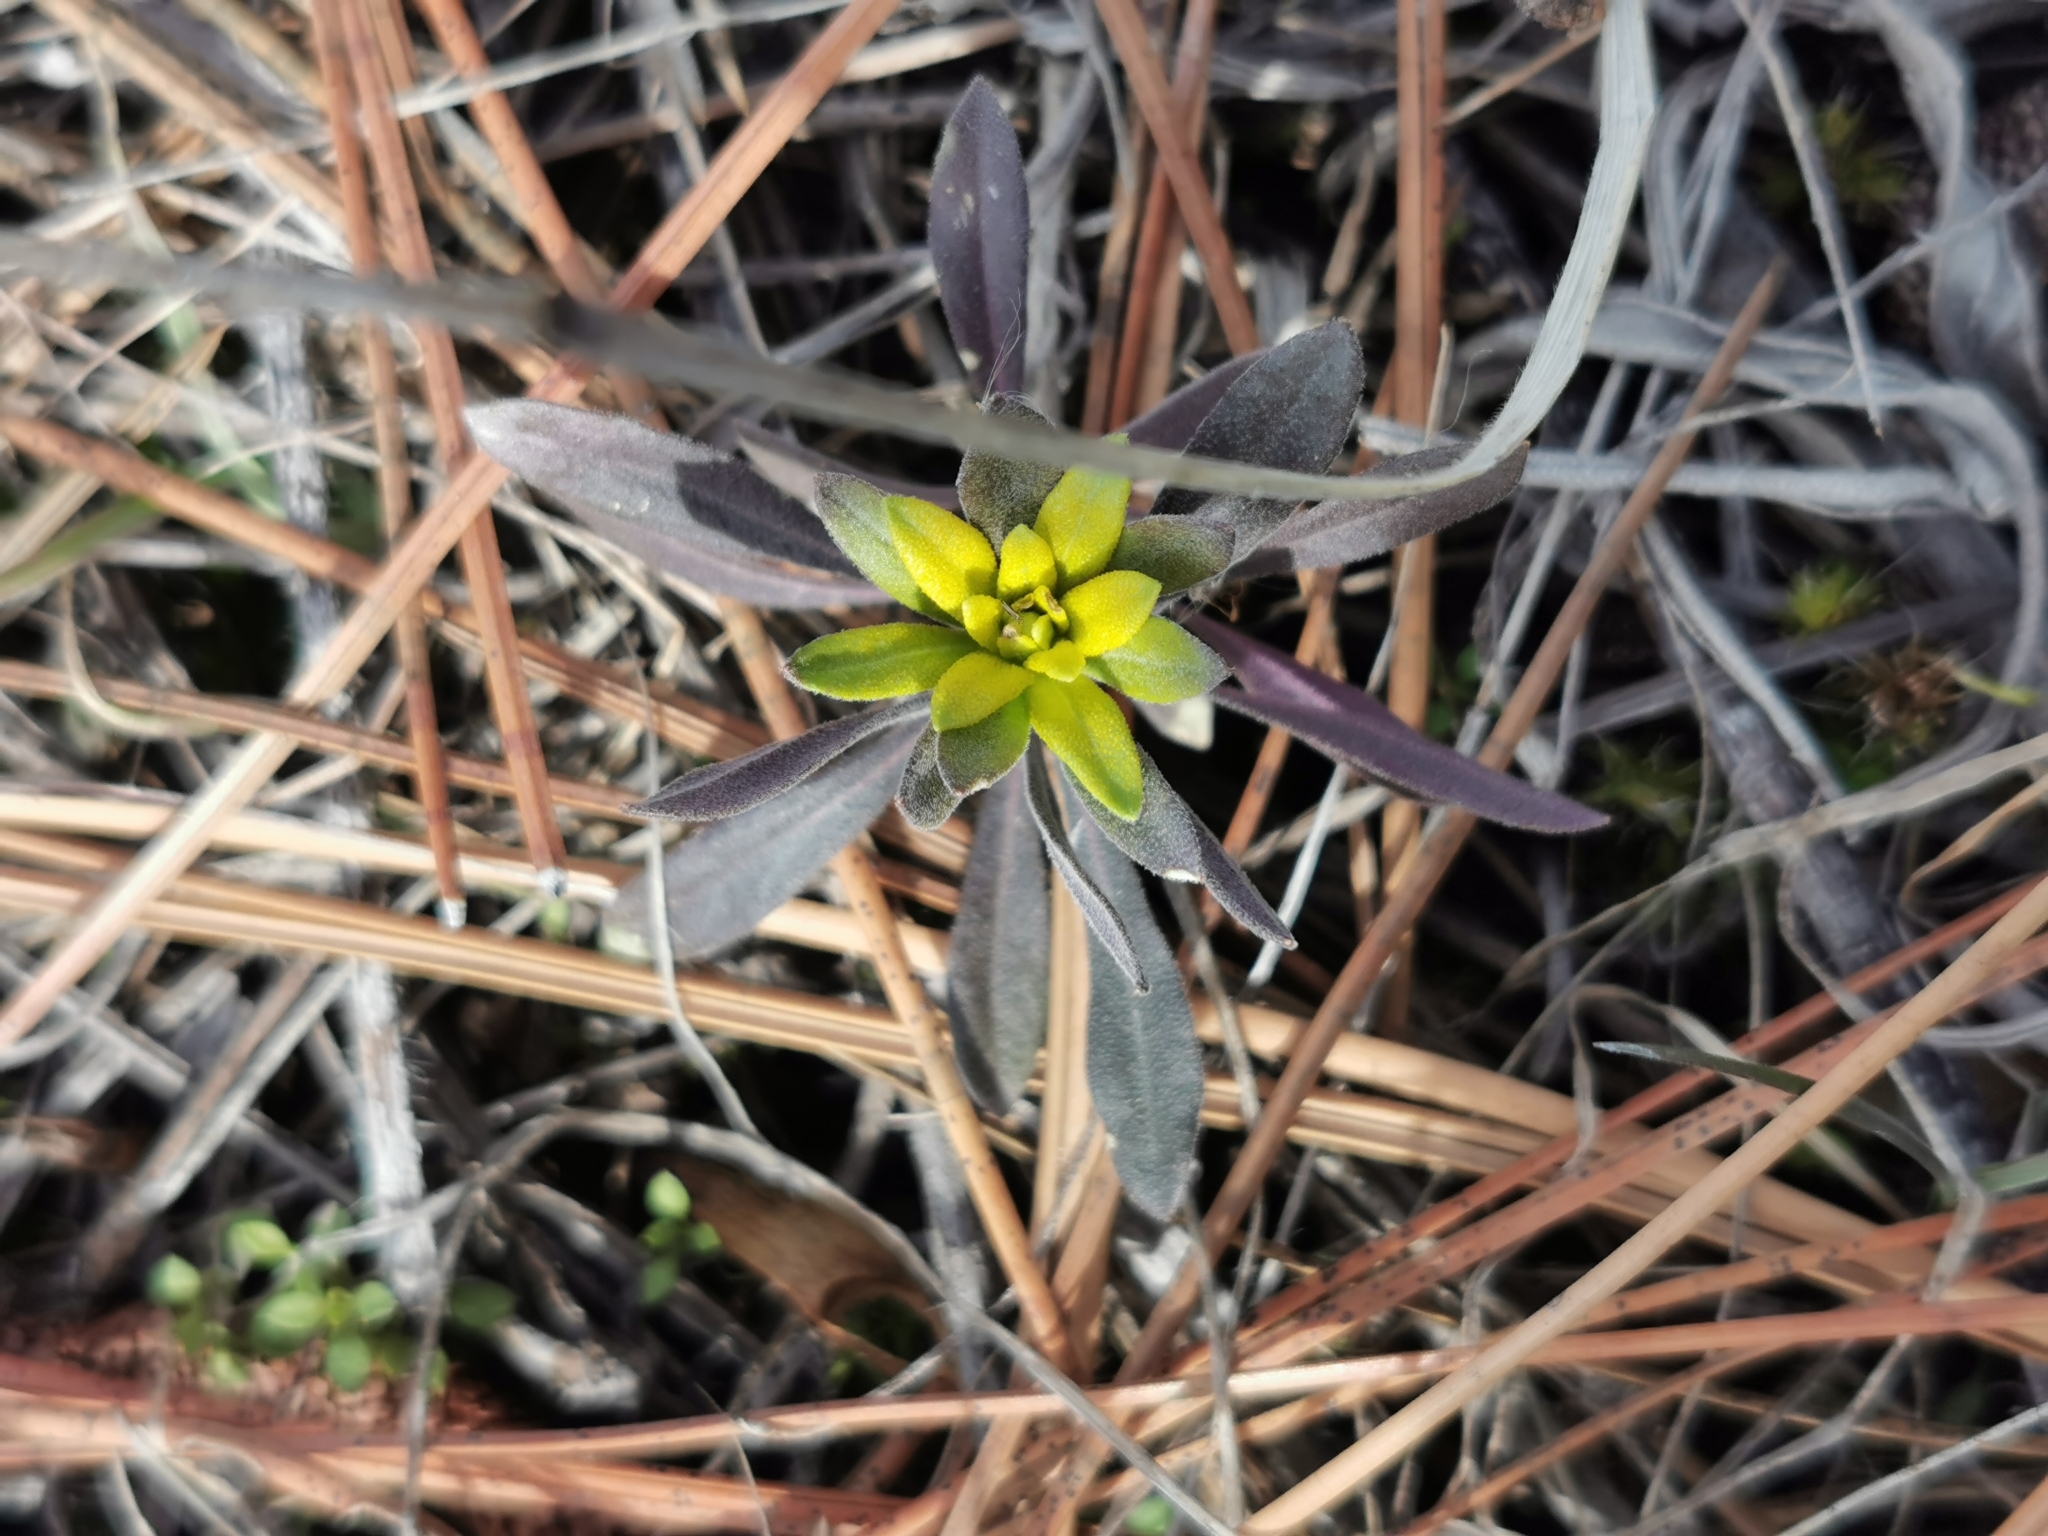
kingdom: Fungi
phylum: Basidiomycota
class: Pucciniomycetes
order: Pucciniales
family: Pucciniaceae
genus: Puccinia
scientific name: Puccinia monoica
